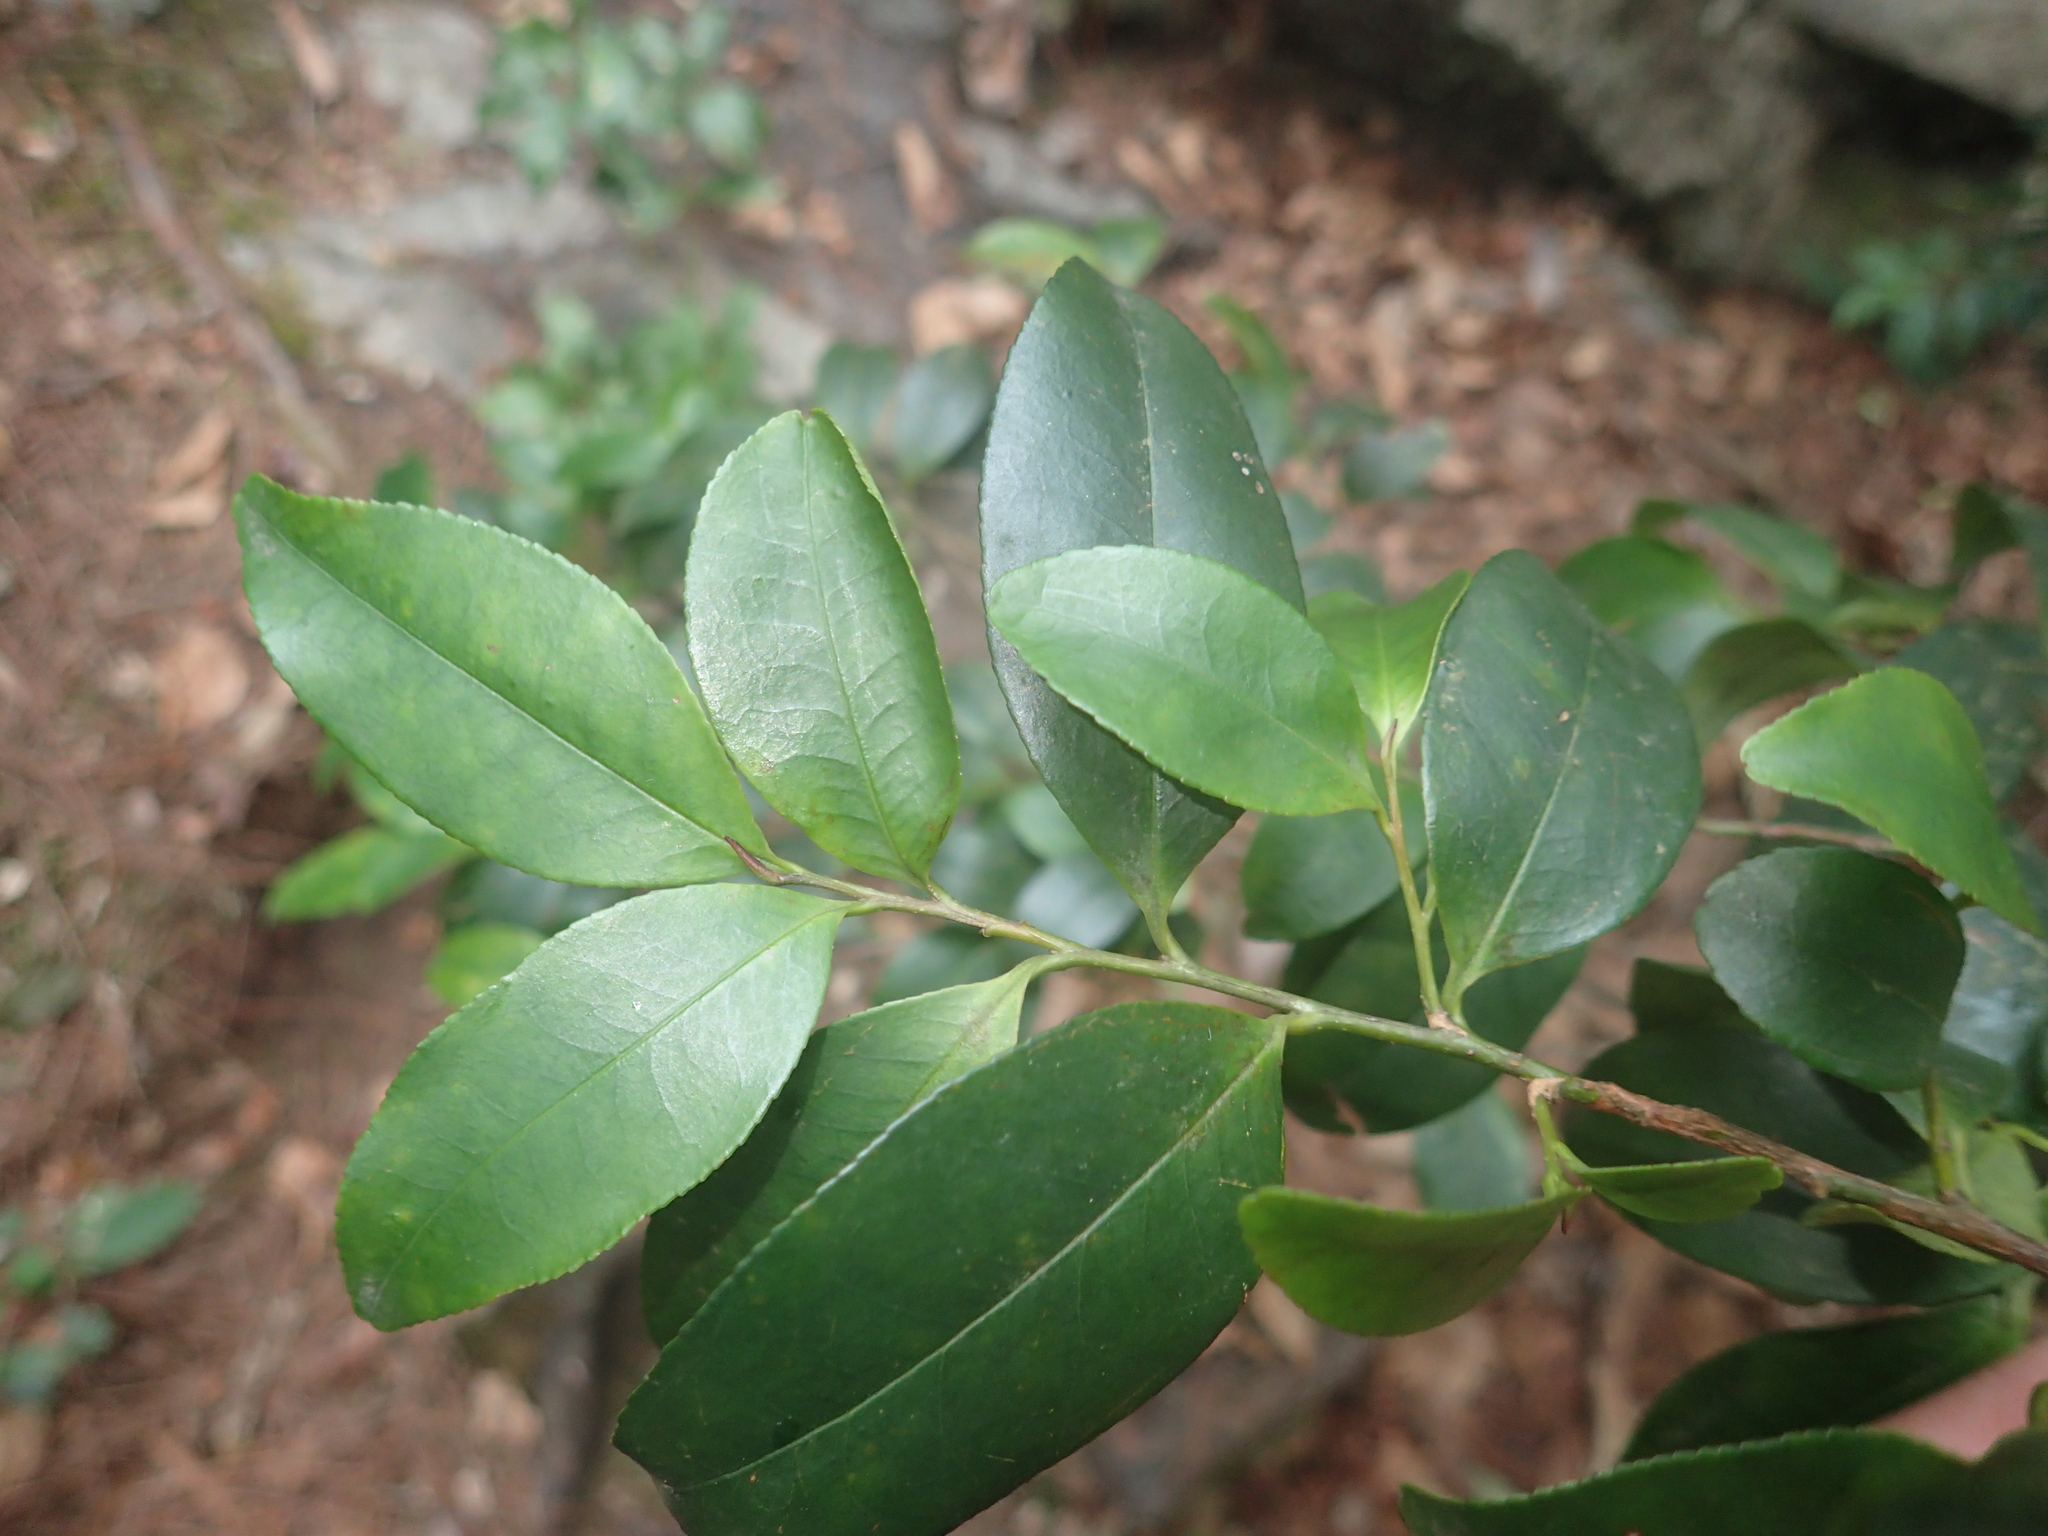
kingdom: Plantae
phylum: Tracheophyta
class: Magnoliopsida
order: Ericales
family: Pentaphylacaceae
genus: Eurya
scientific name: Eurya nitida
